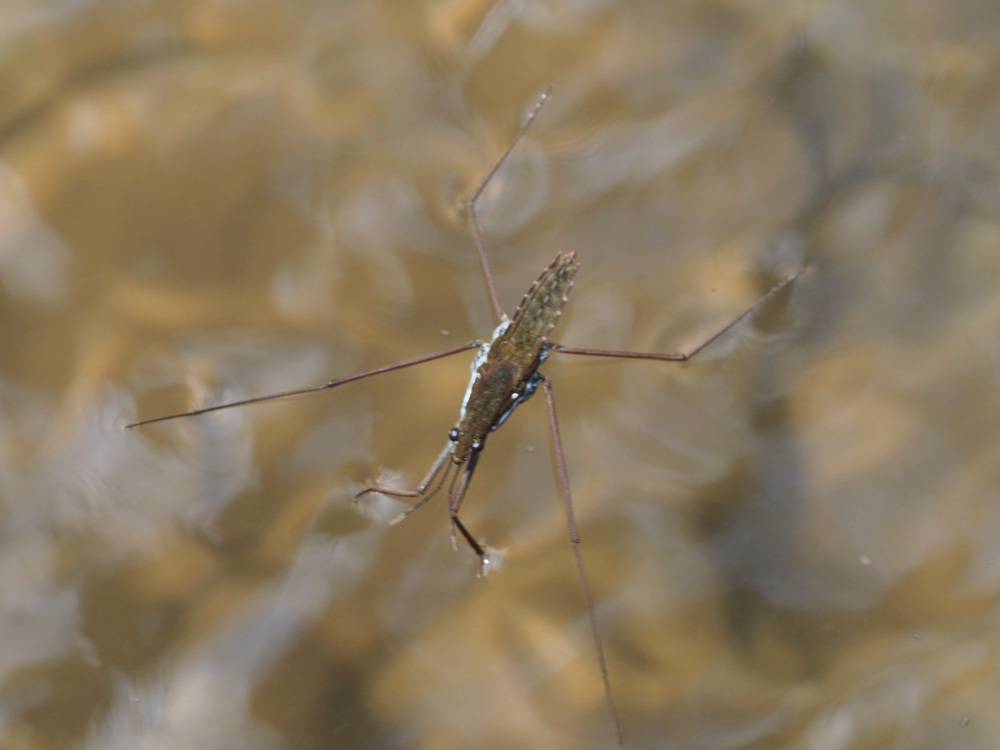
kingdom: Animalia
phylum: Arthropoda
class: Insecta
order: Hemiptera
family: Gerridae
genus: Aquarius
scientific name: Aquarius
